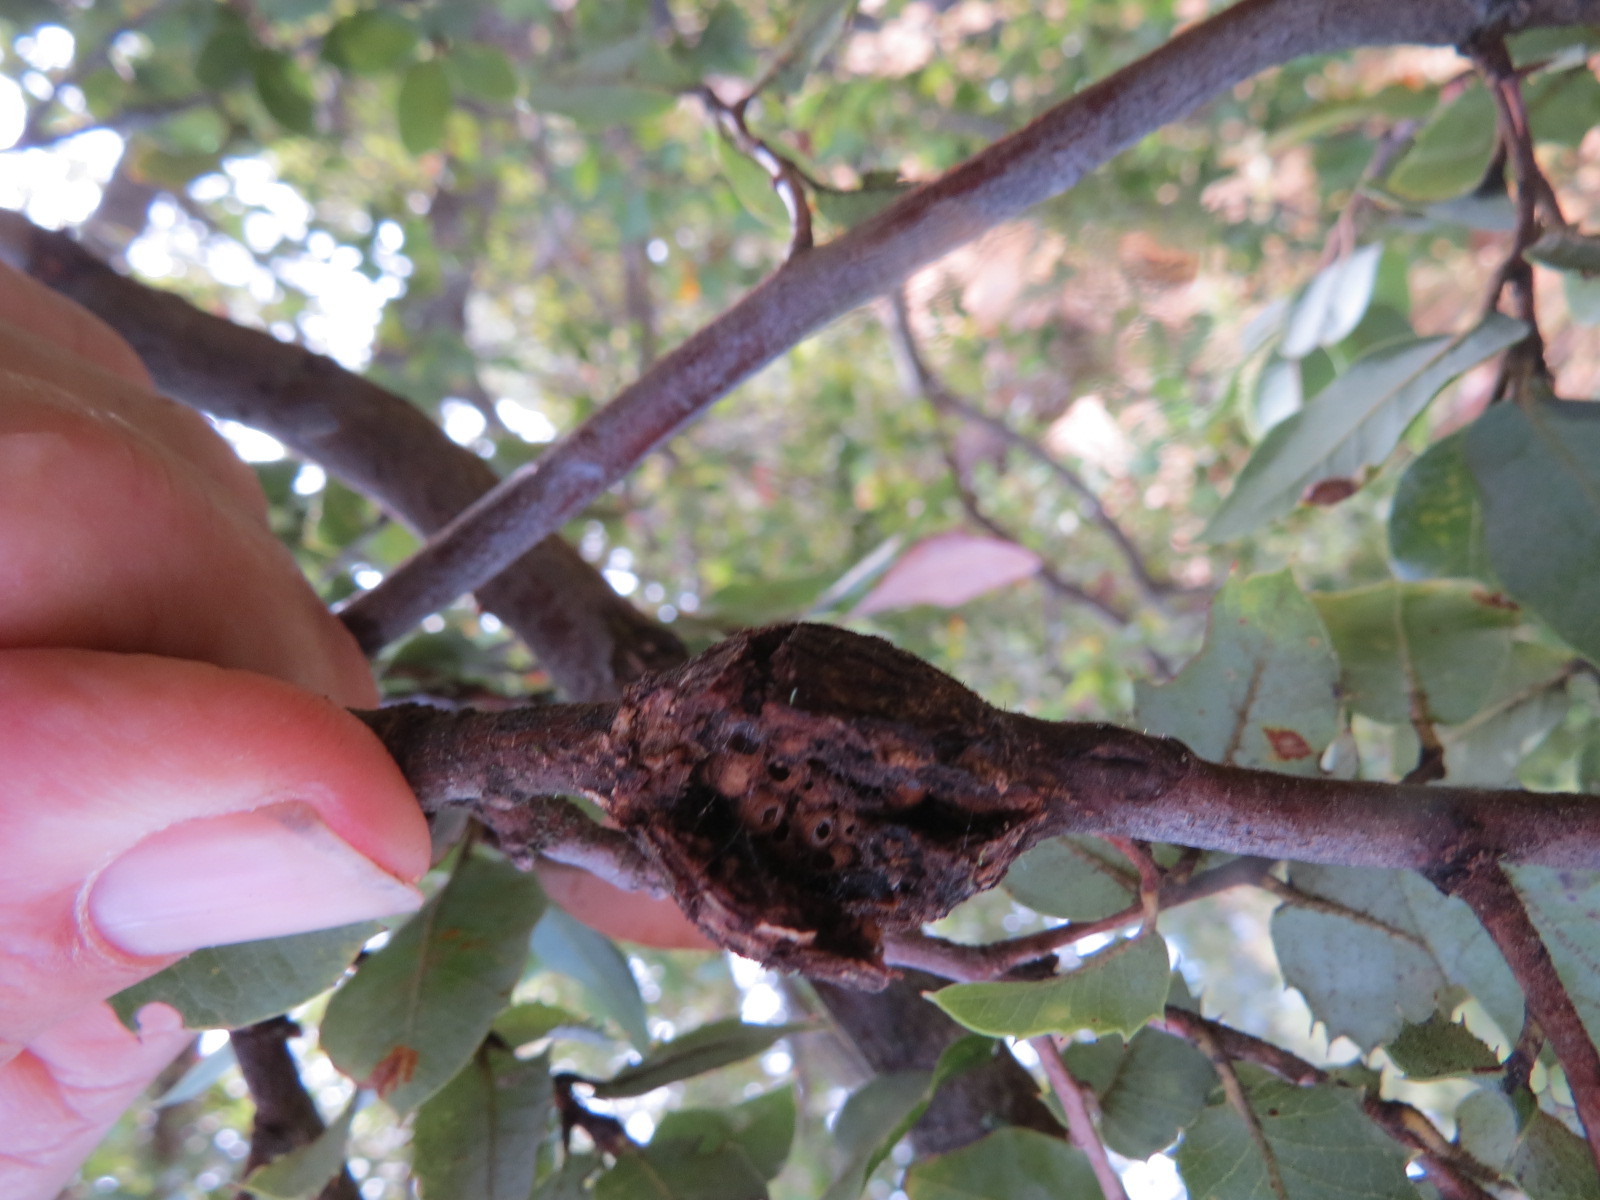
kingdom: Animalia
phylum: Arthropoda
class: Insecta
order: Hymenoptera
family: Cynipidae
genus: Dryocosmus
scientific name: Dryocosmus
